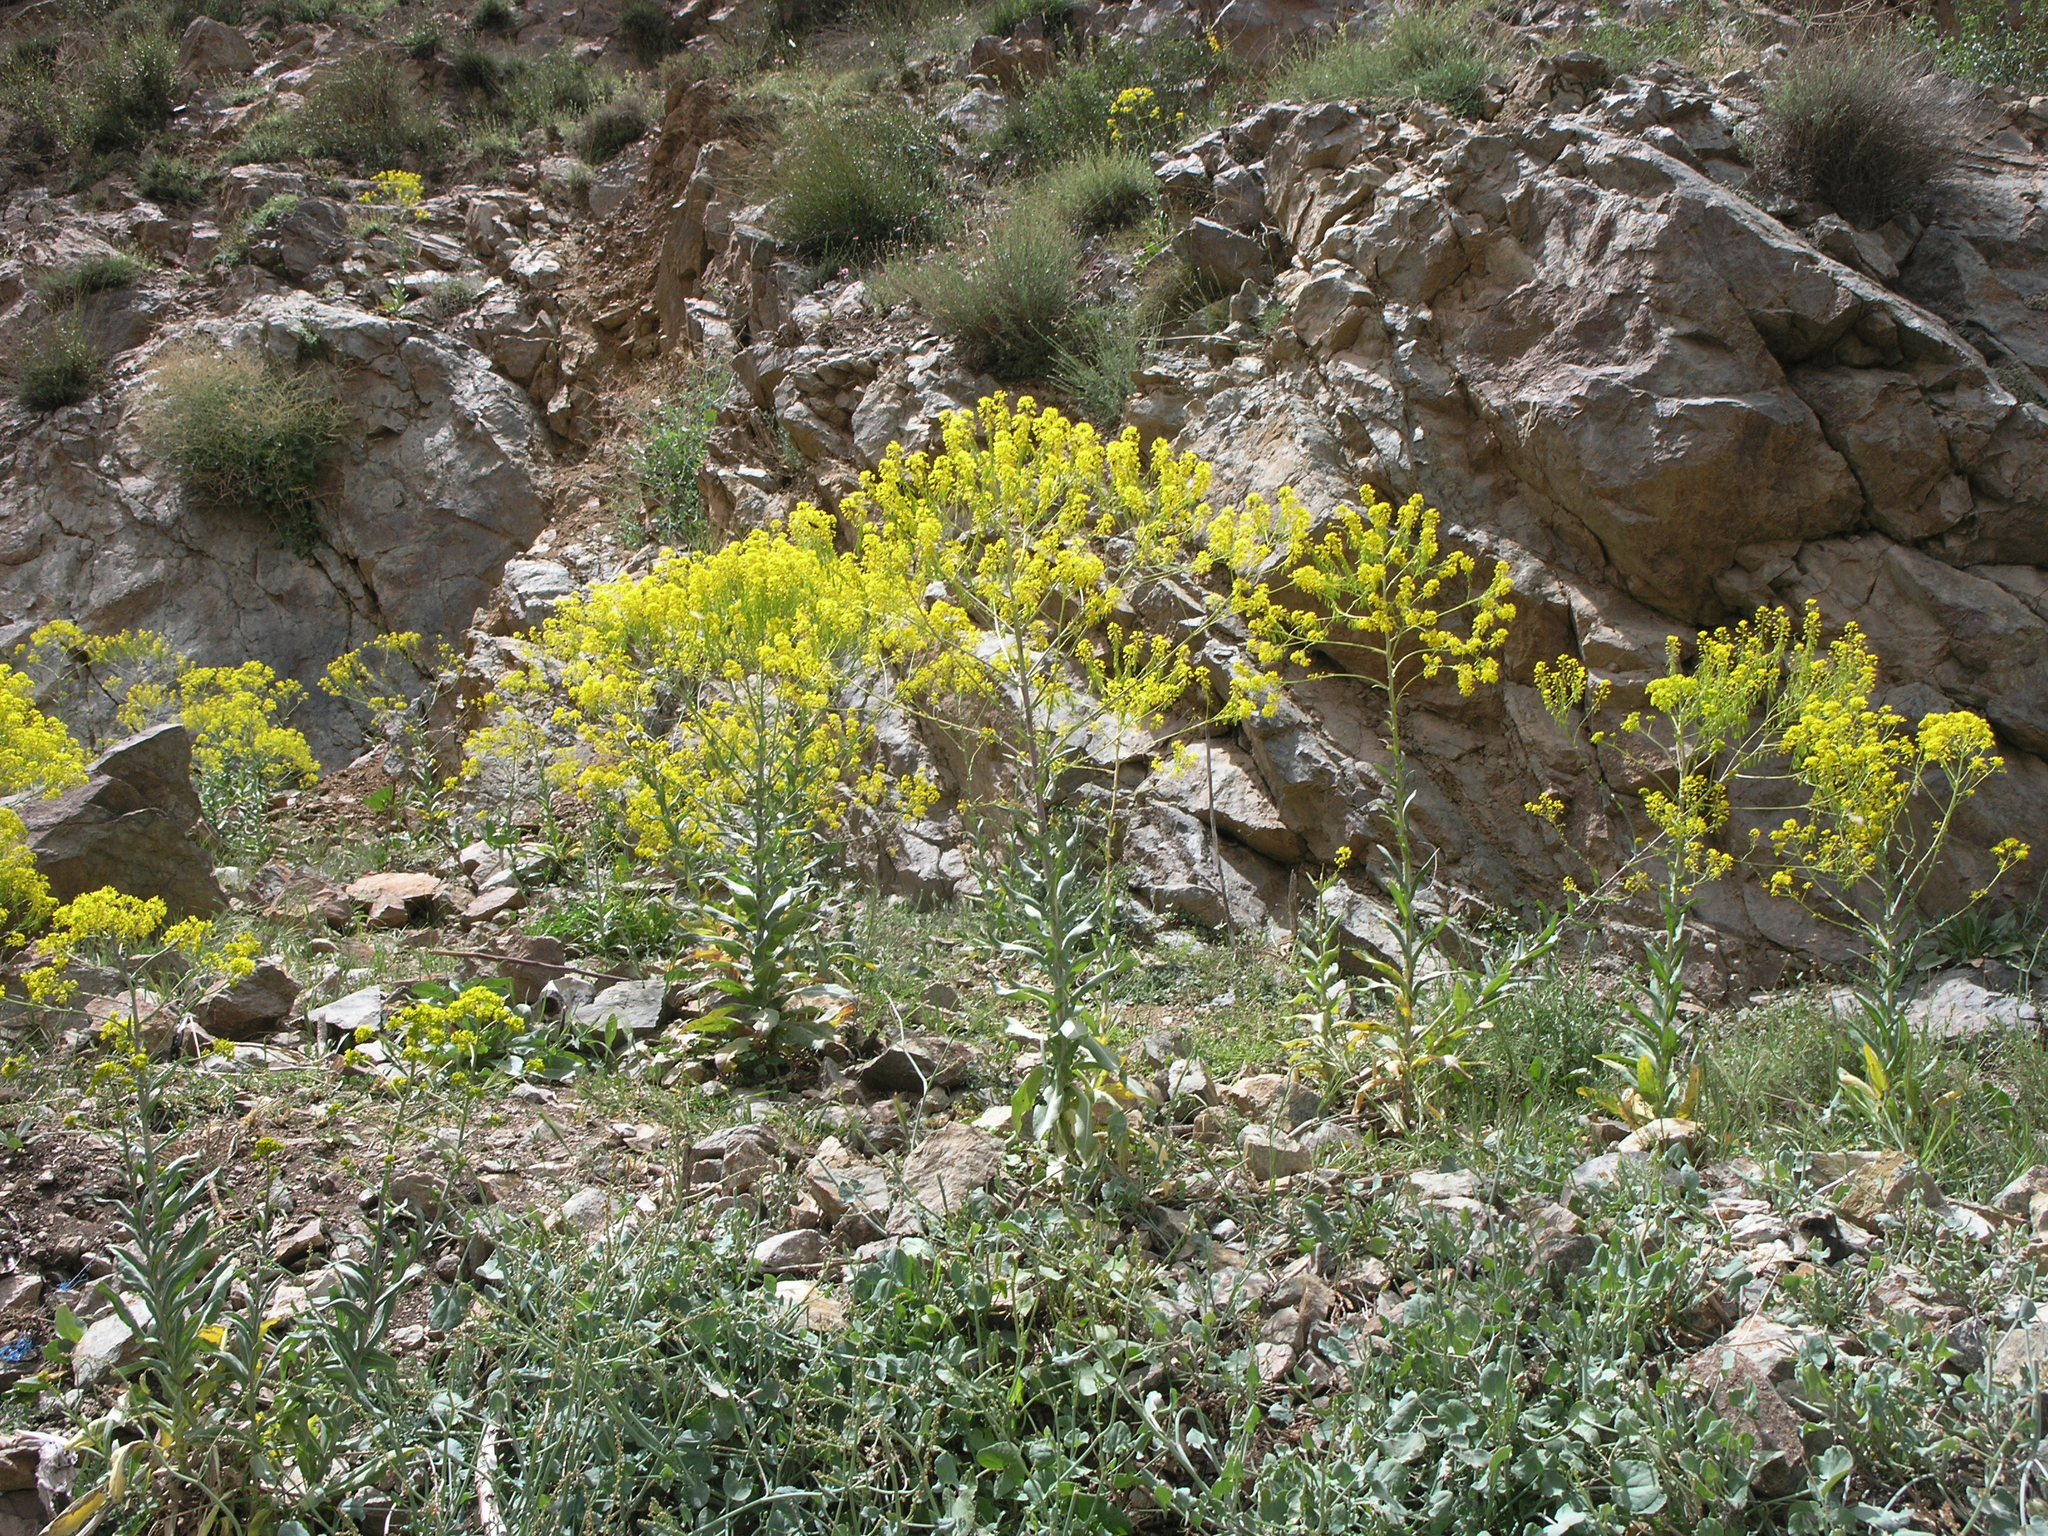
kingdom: Plantae
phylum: Tracheophyta
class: Magnoliopsida
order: Brassicales
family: Brassicaceae
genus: Isatis
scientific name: Isatis tinctoria
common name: Woad
